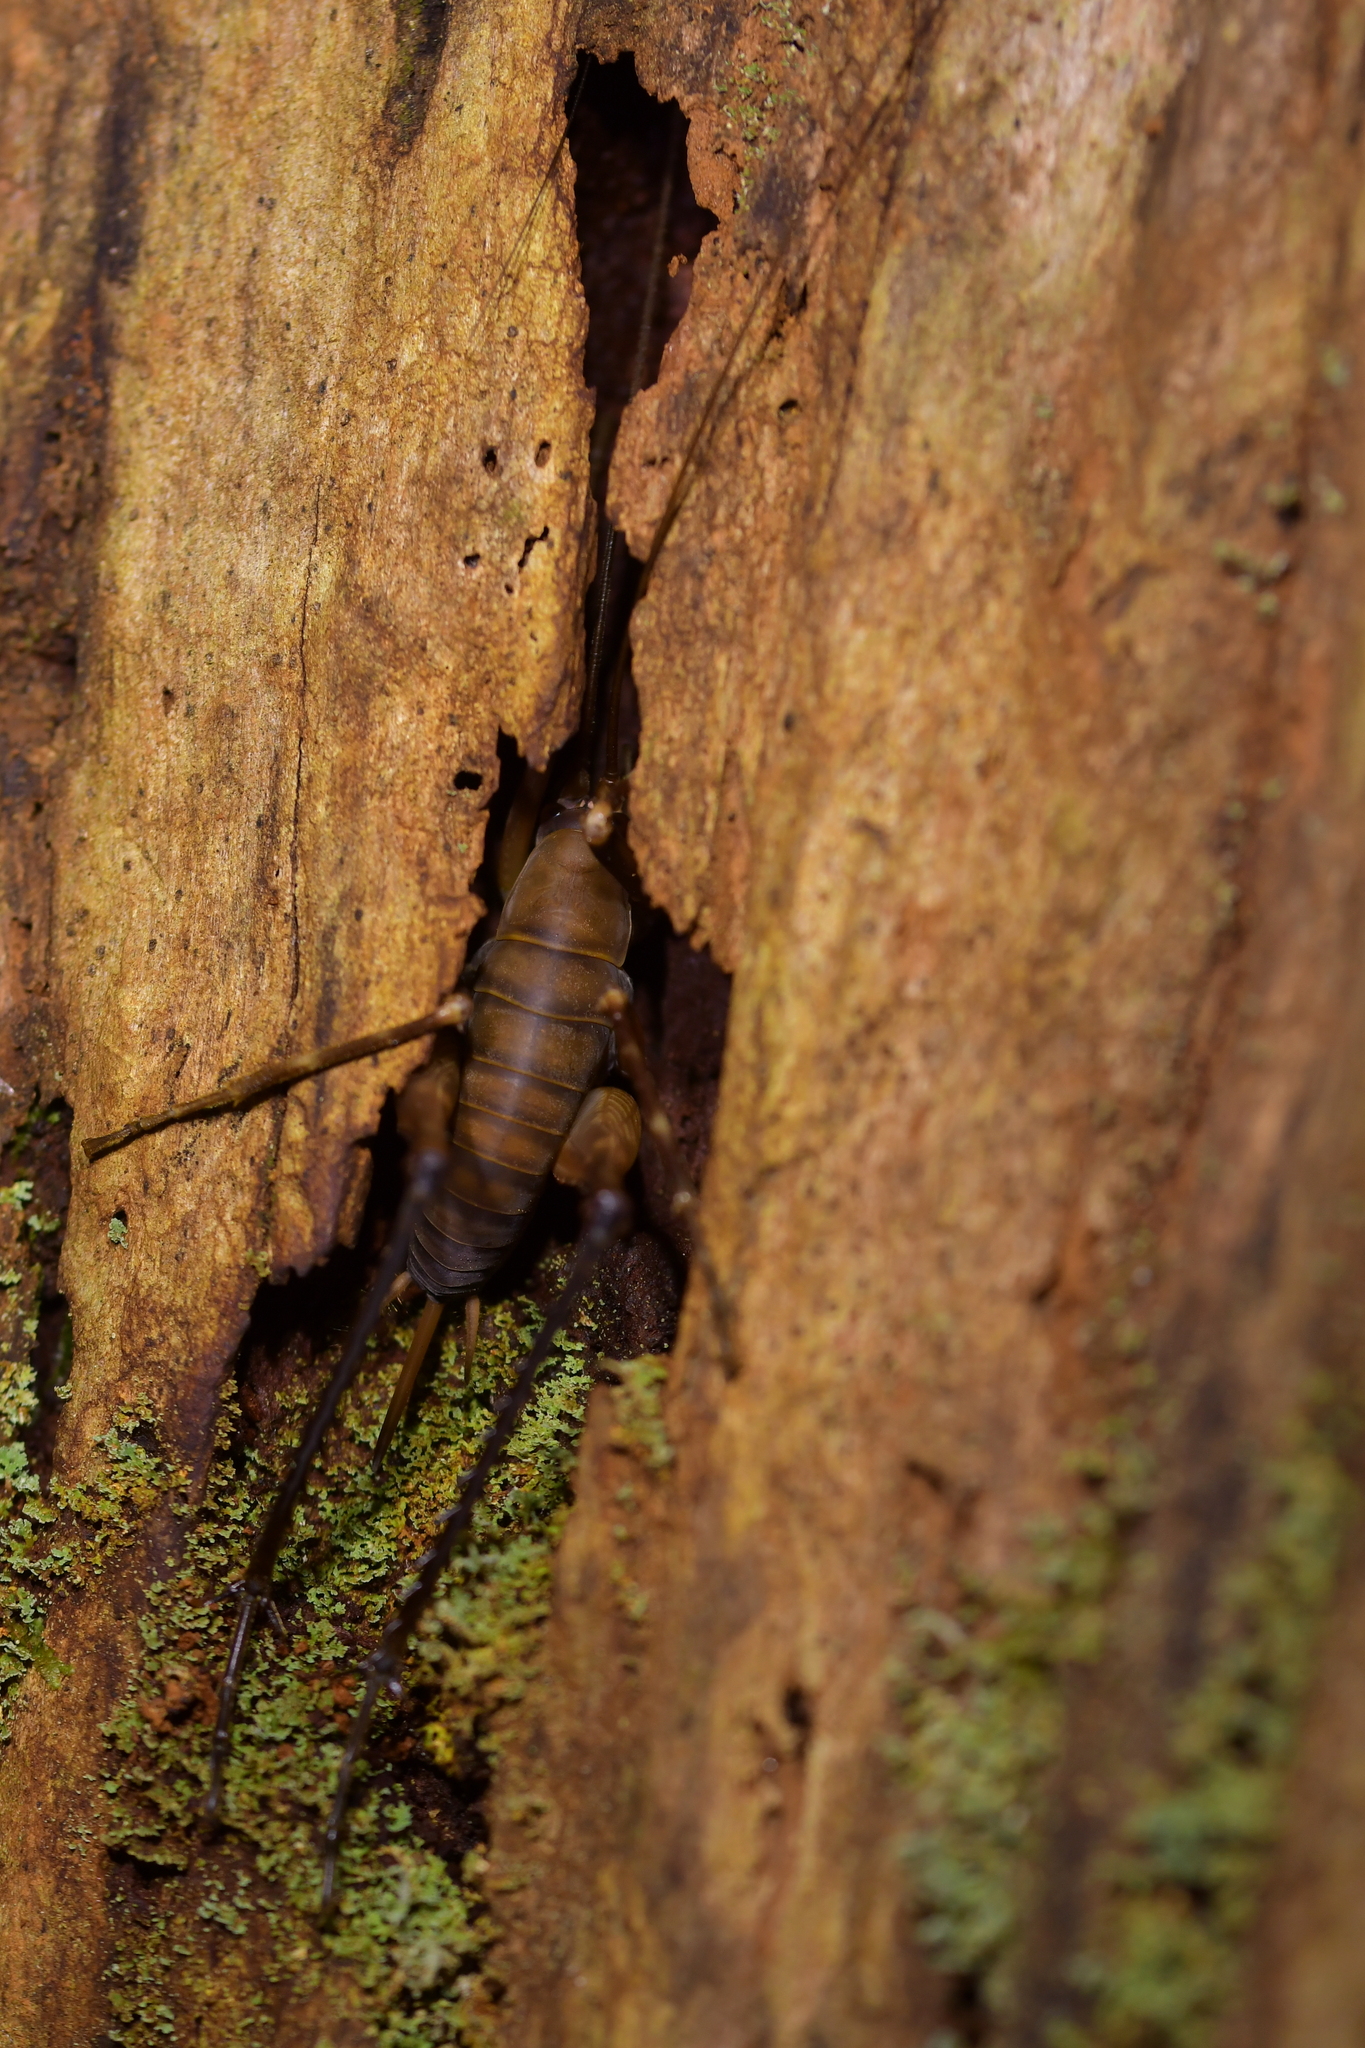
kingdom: Animalia
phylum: Arthropoda
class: Insecta
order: Orthoptera
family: Rhaphidophoridae
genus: Pachyrhamma
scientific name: Pachyrhamma longipes
